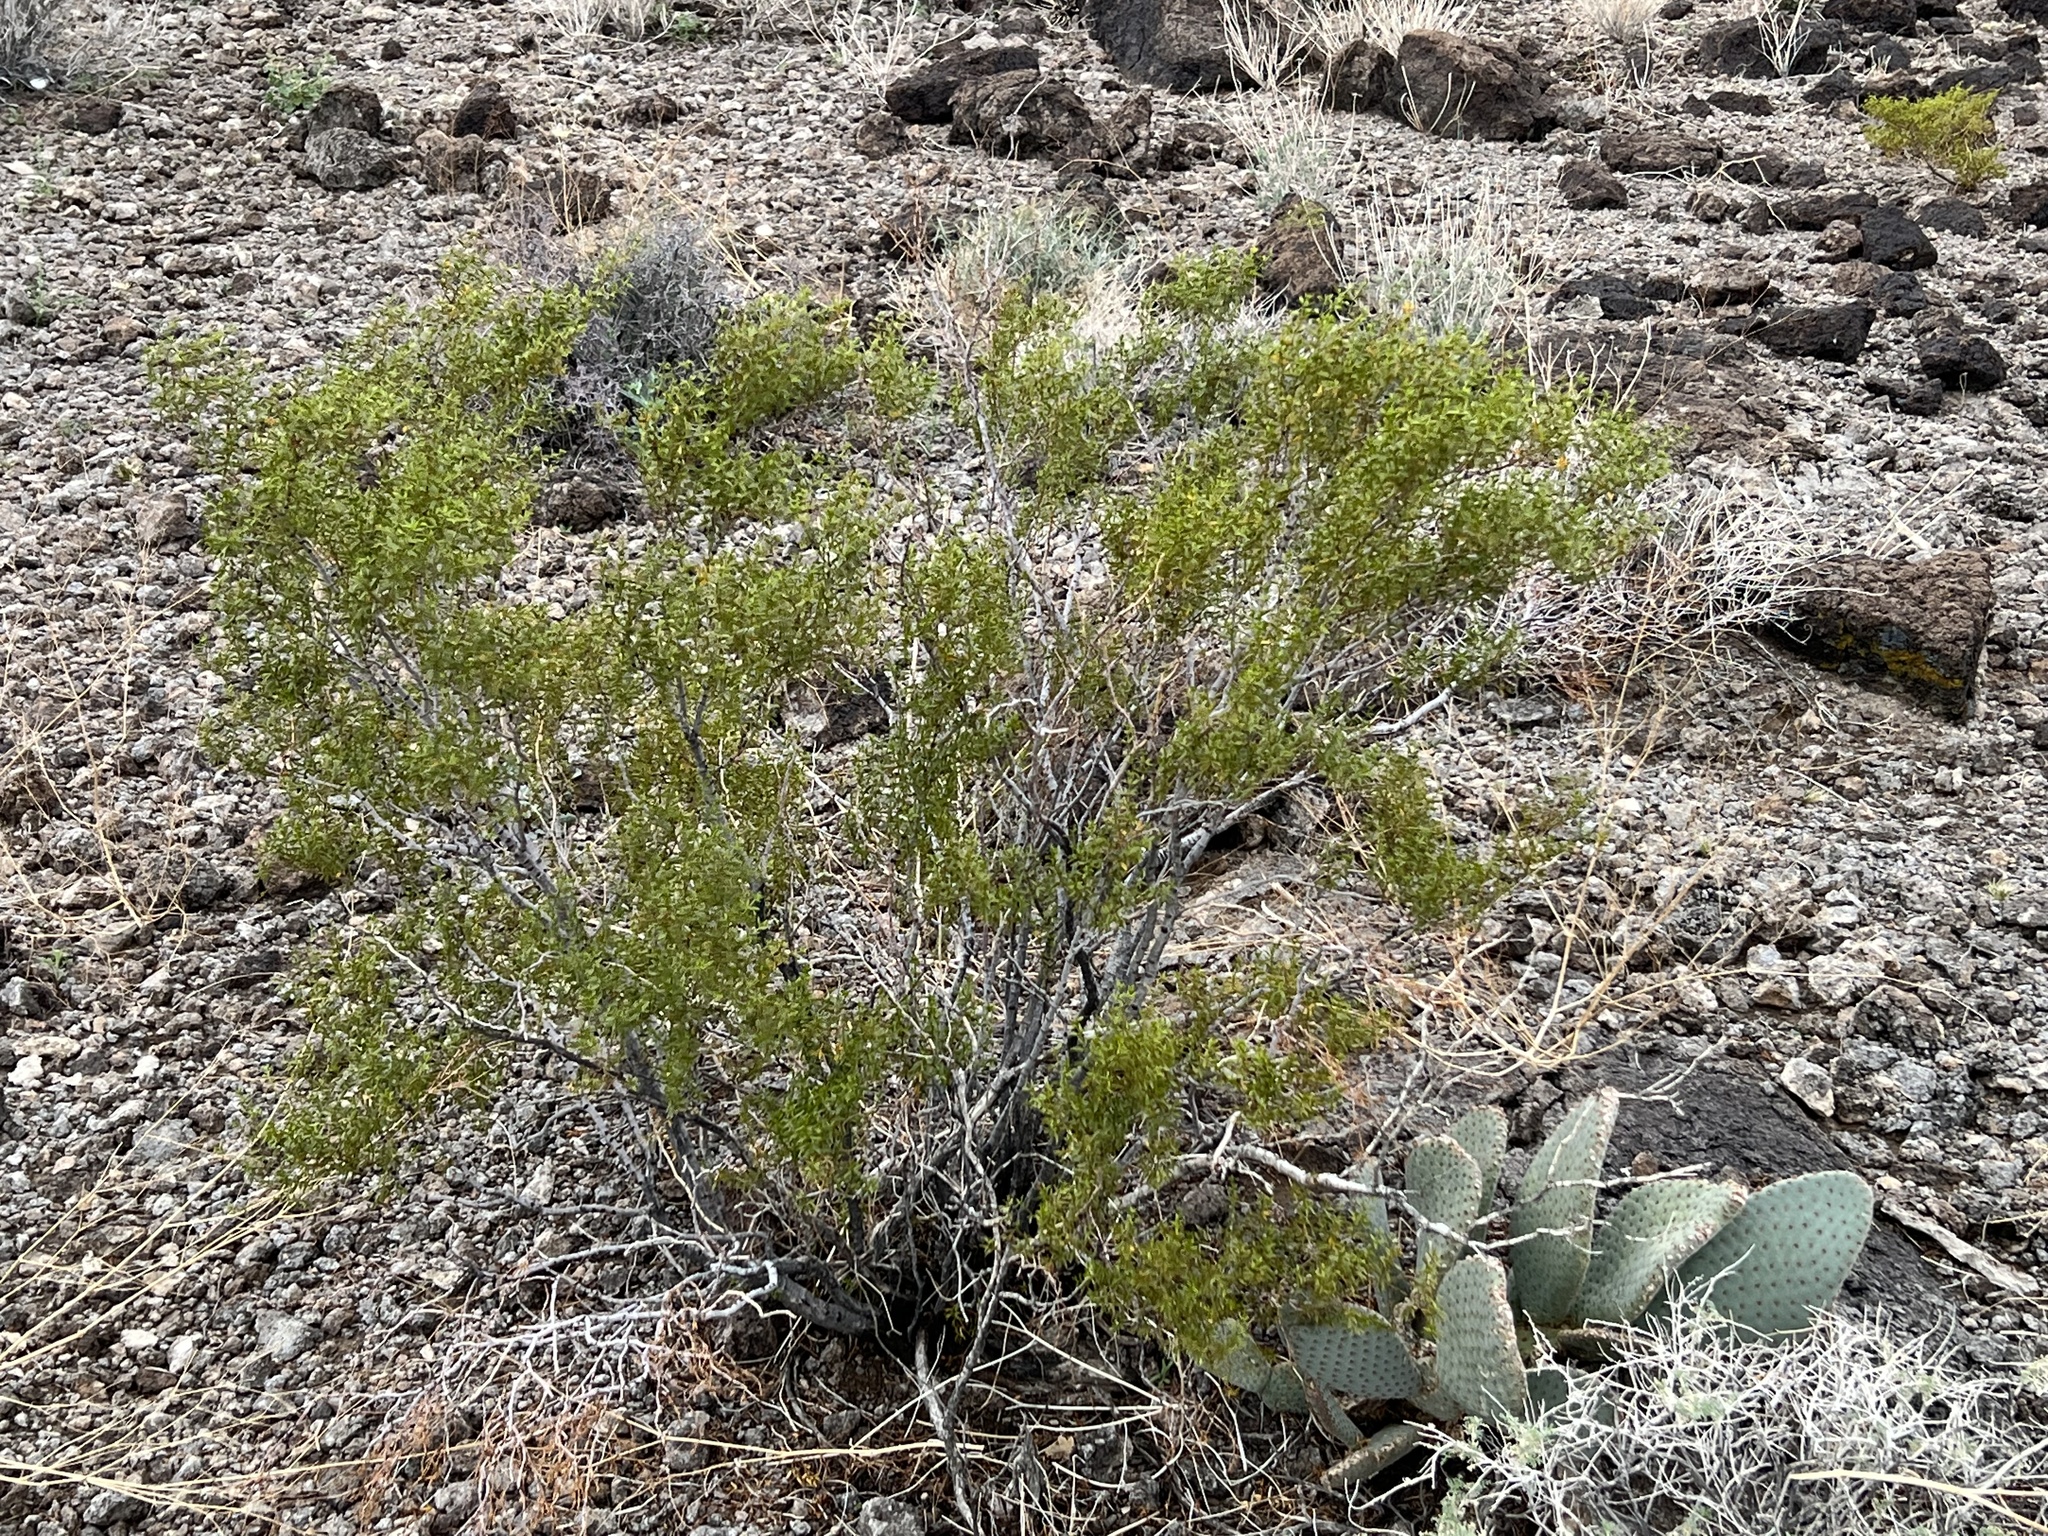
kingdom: Plantae
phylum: Tracheophyta
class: Magnoliopsida
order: Zygophyllales
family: Zygophyllaceae
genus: Larrea
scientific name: Larrea tridentata
